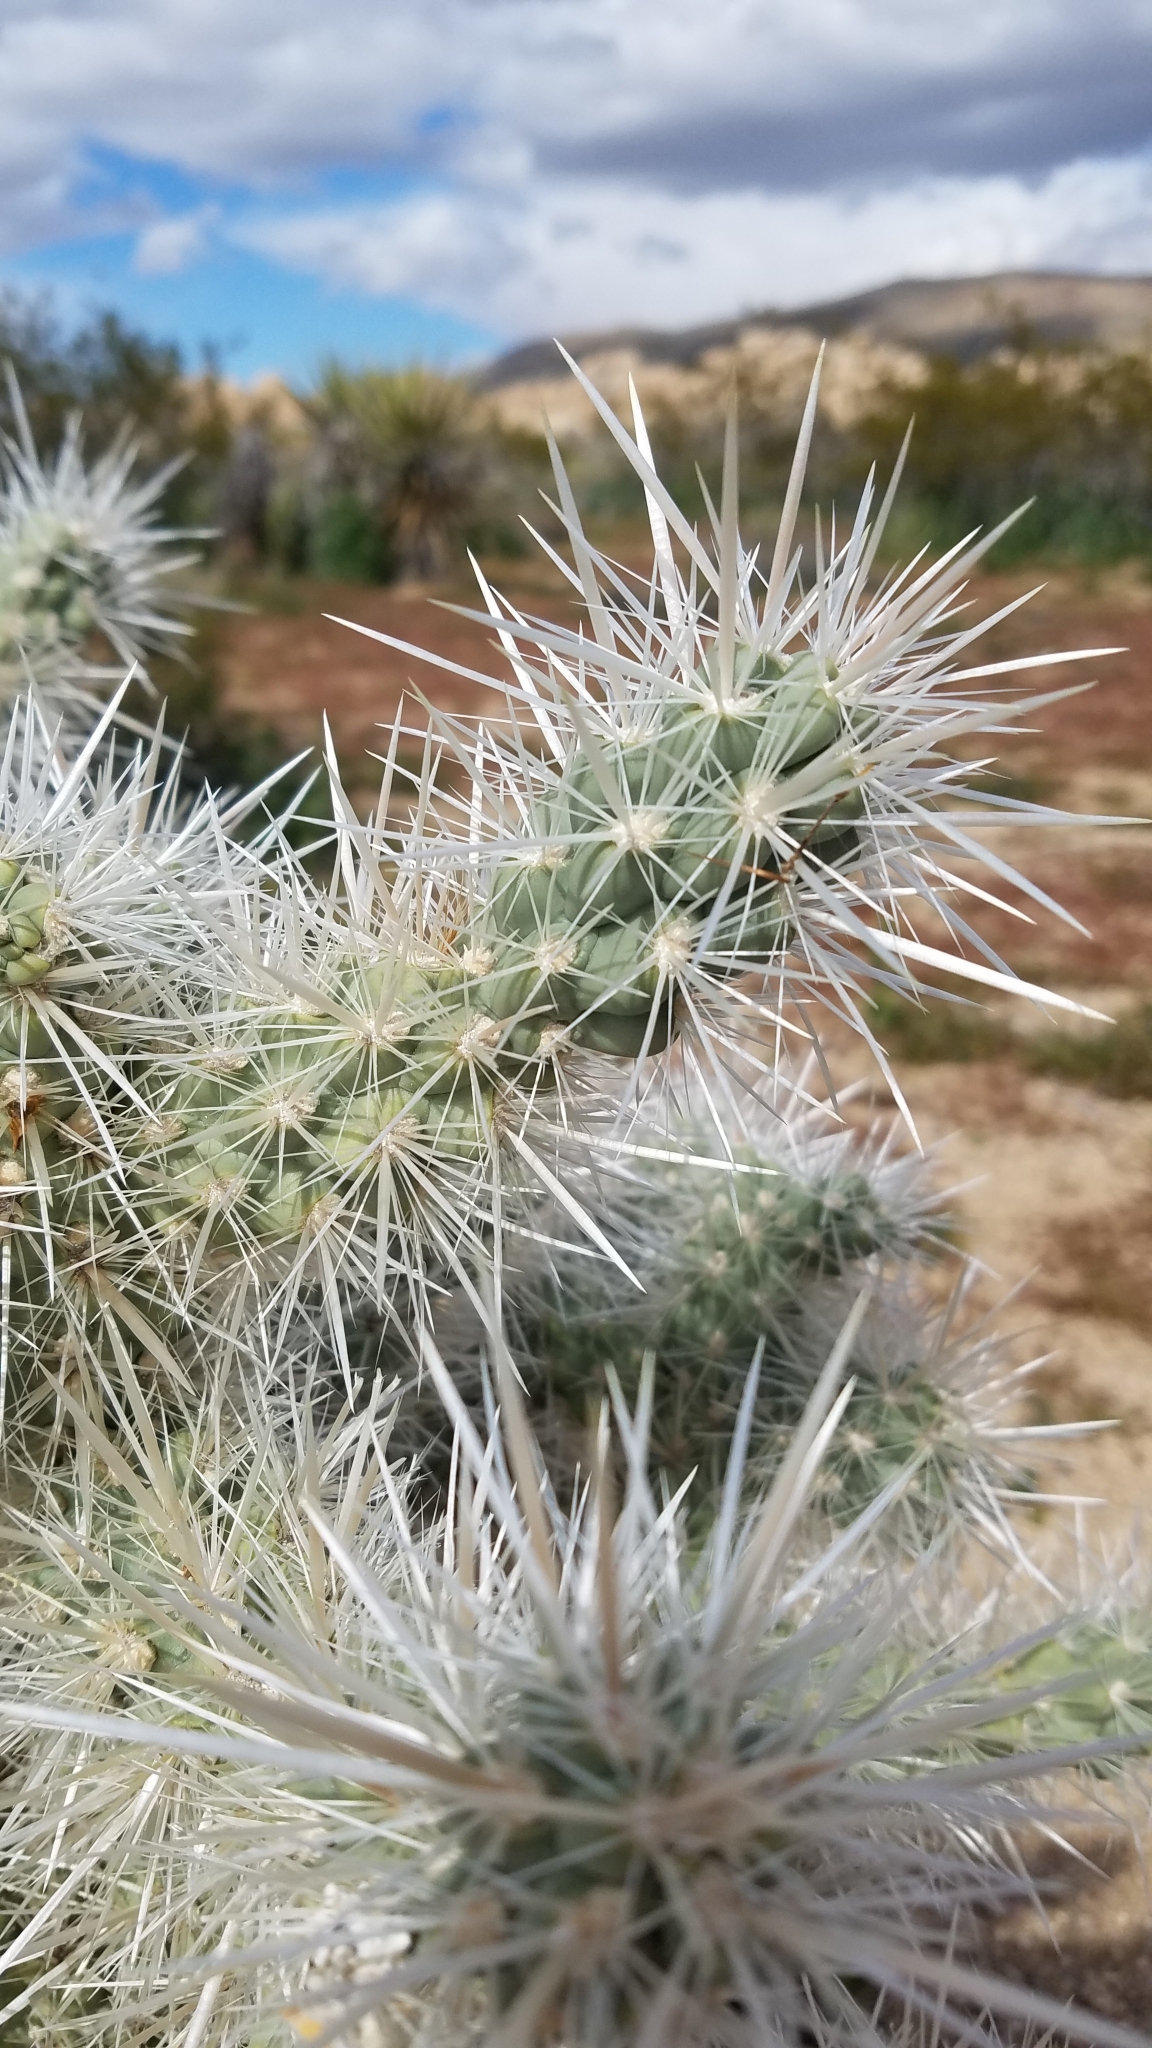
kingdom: Plantae
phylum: Tracheophyta
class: Magnoliopsida
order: Caryophyllales
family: Cactaceae
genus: Cylindropuntia
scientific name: Cylindropuntia echinocarpa
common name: Ground cholla
